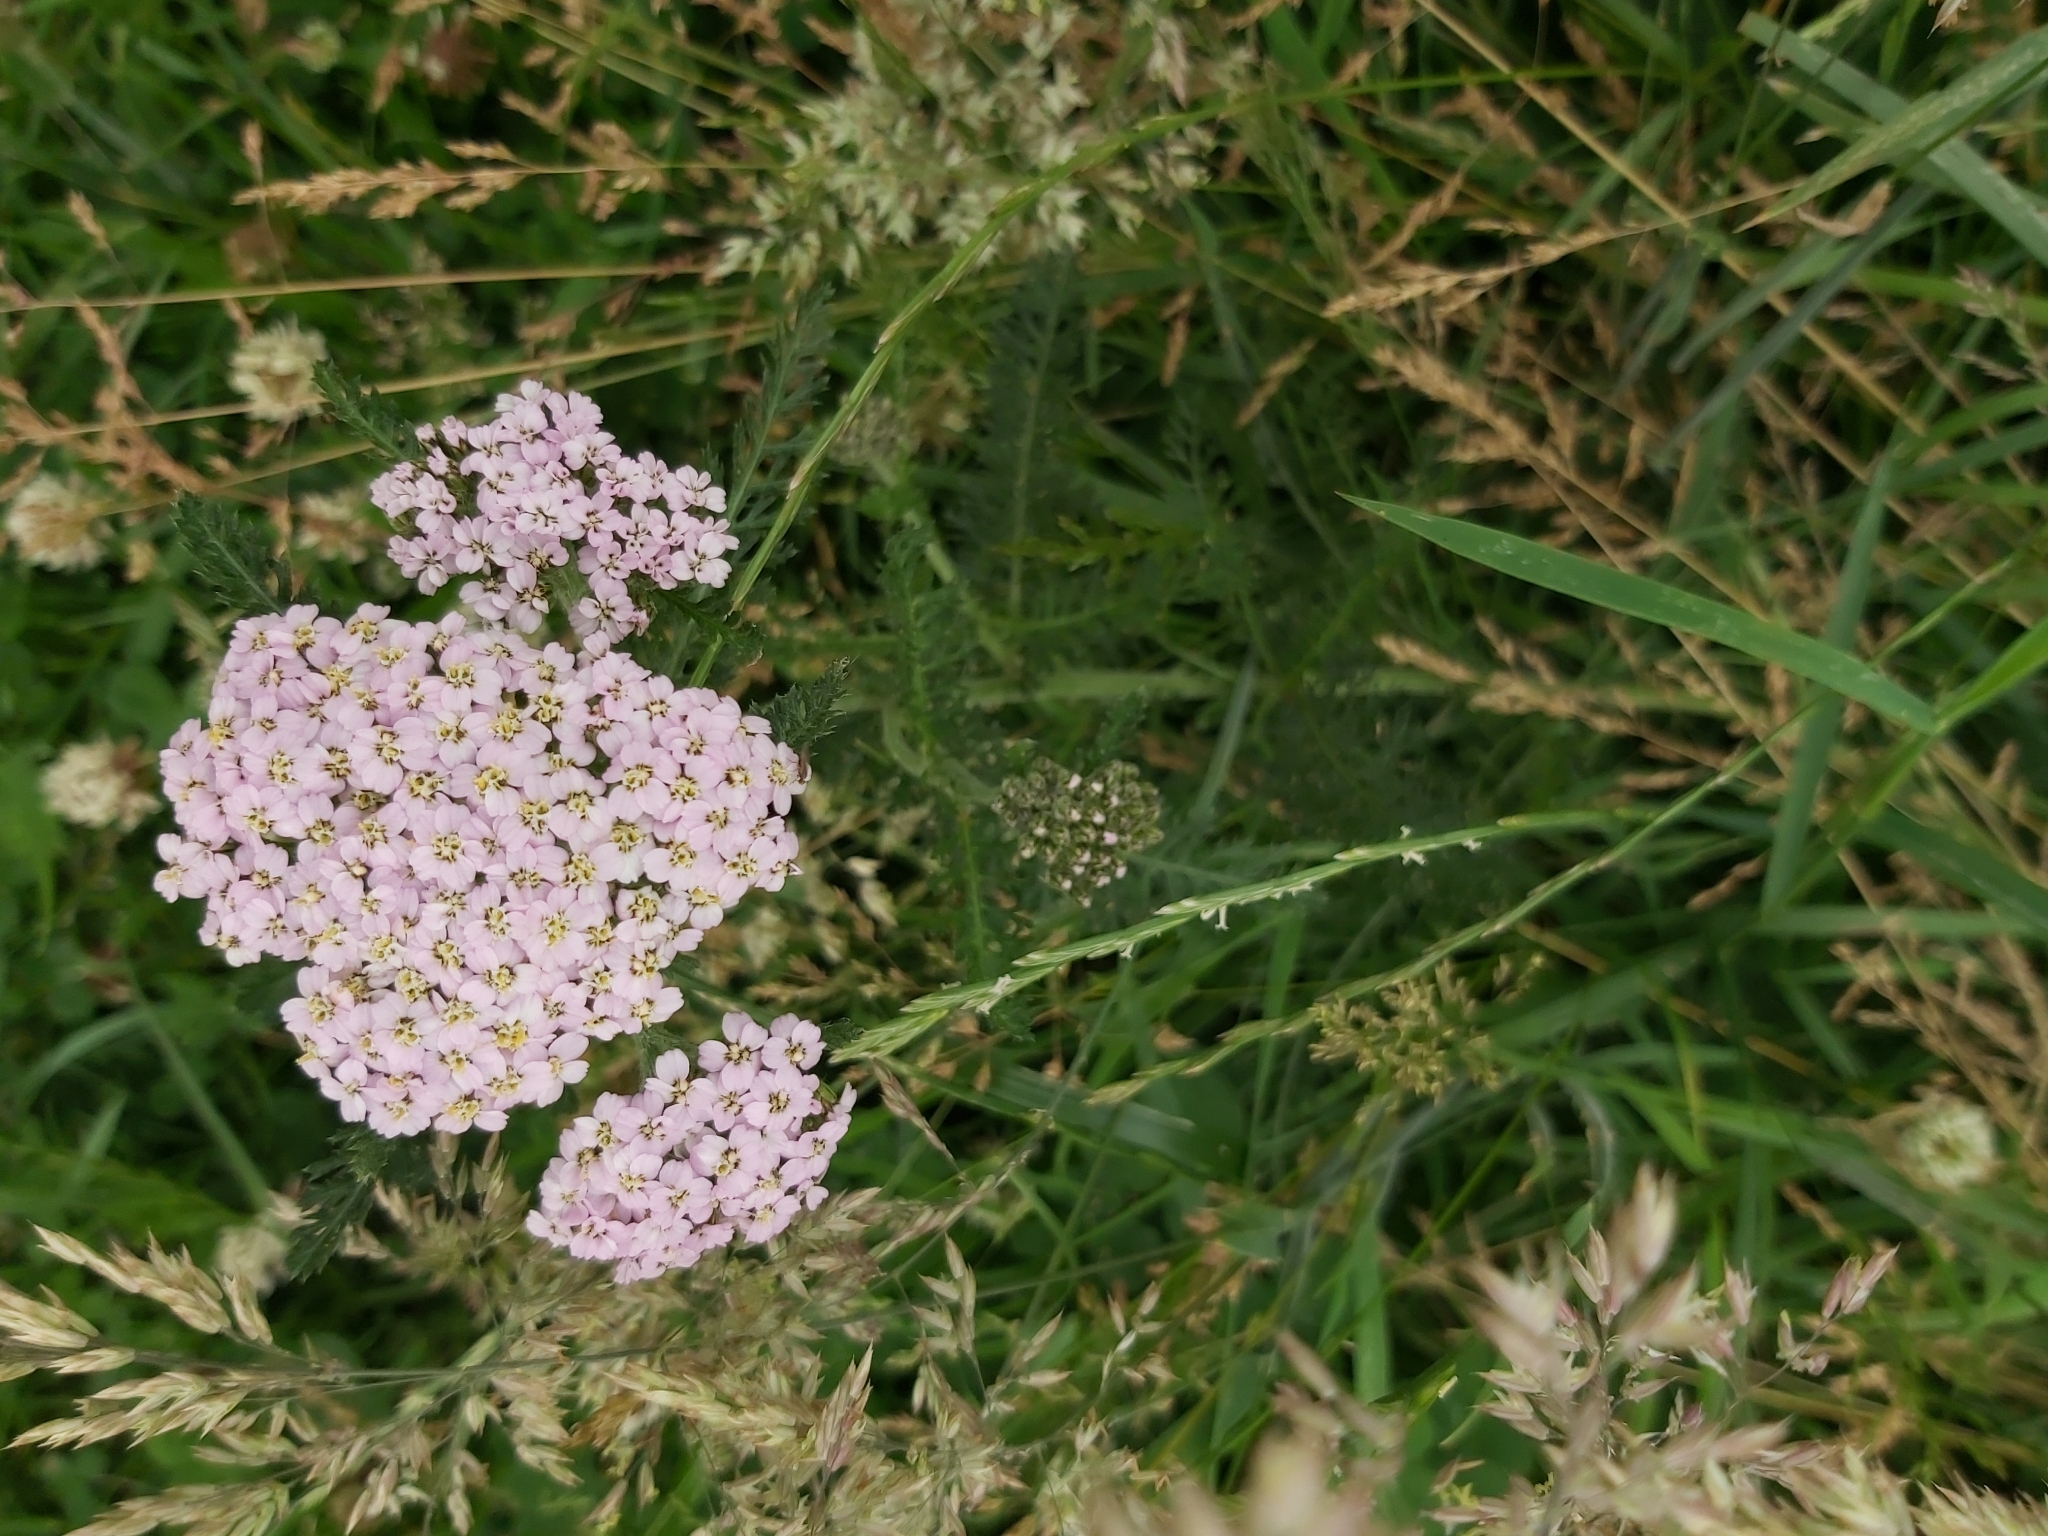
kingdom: Plantae
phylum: Tracheophyta
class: Magnoliopsida
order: Asterales
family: Asteraceae
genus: Achillea
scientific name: Achillea millefolium
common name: Yarrow
